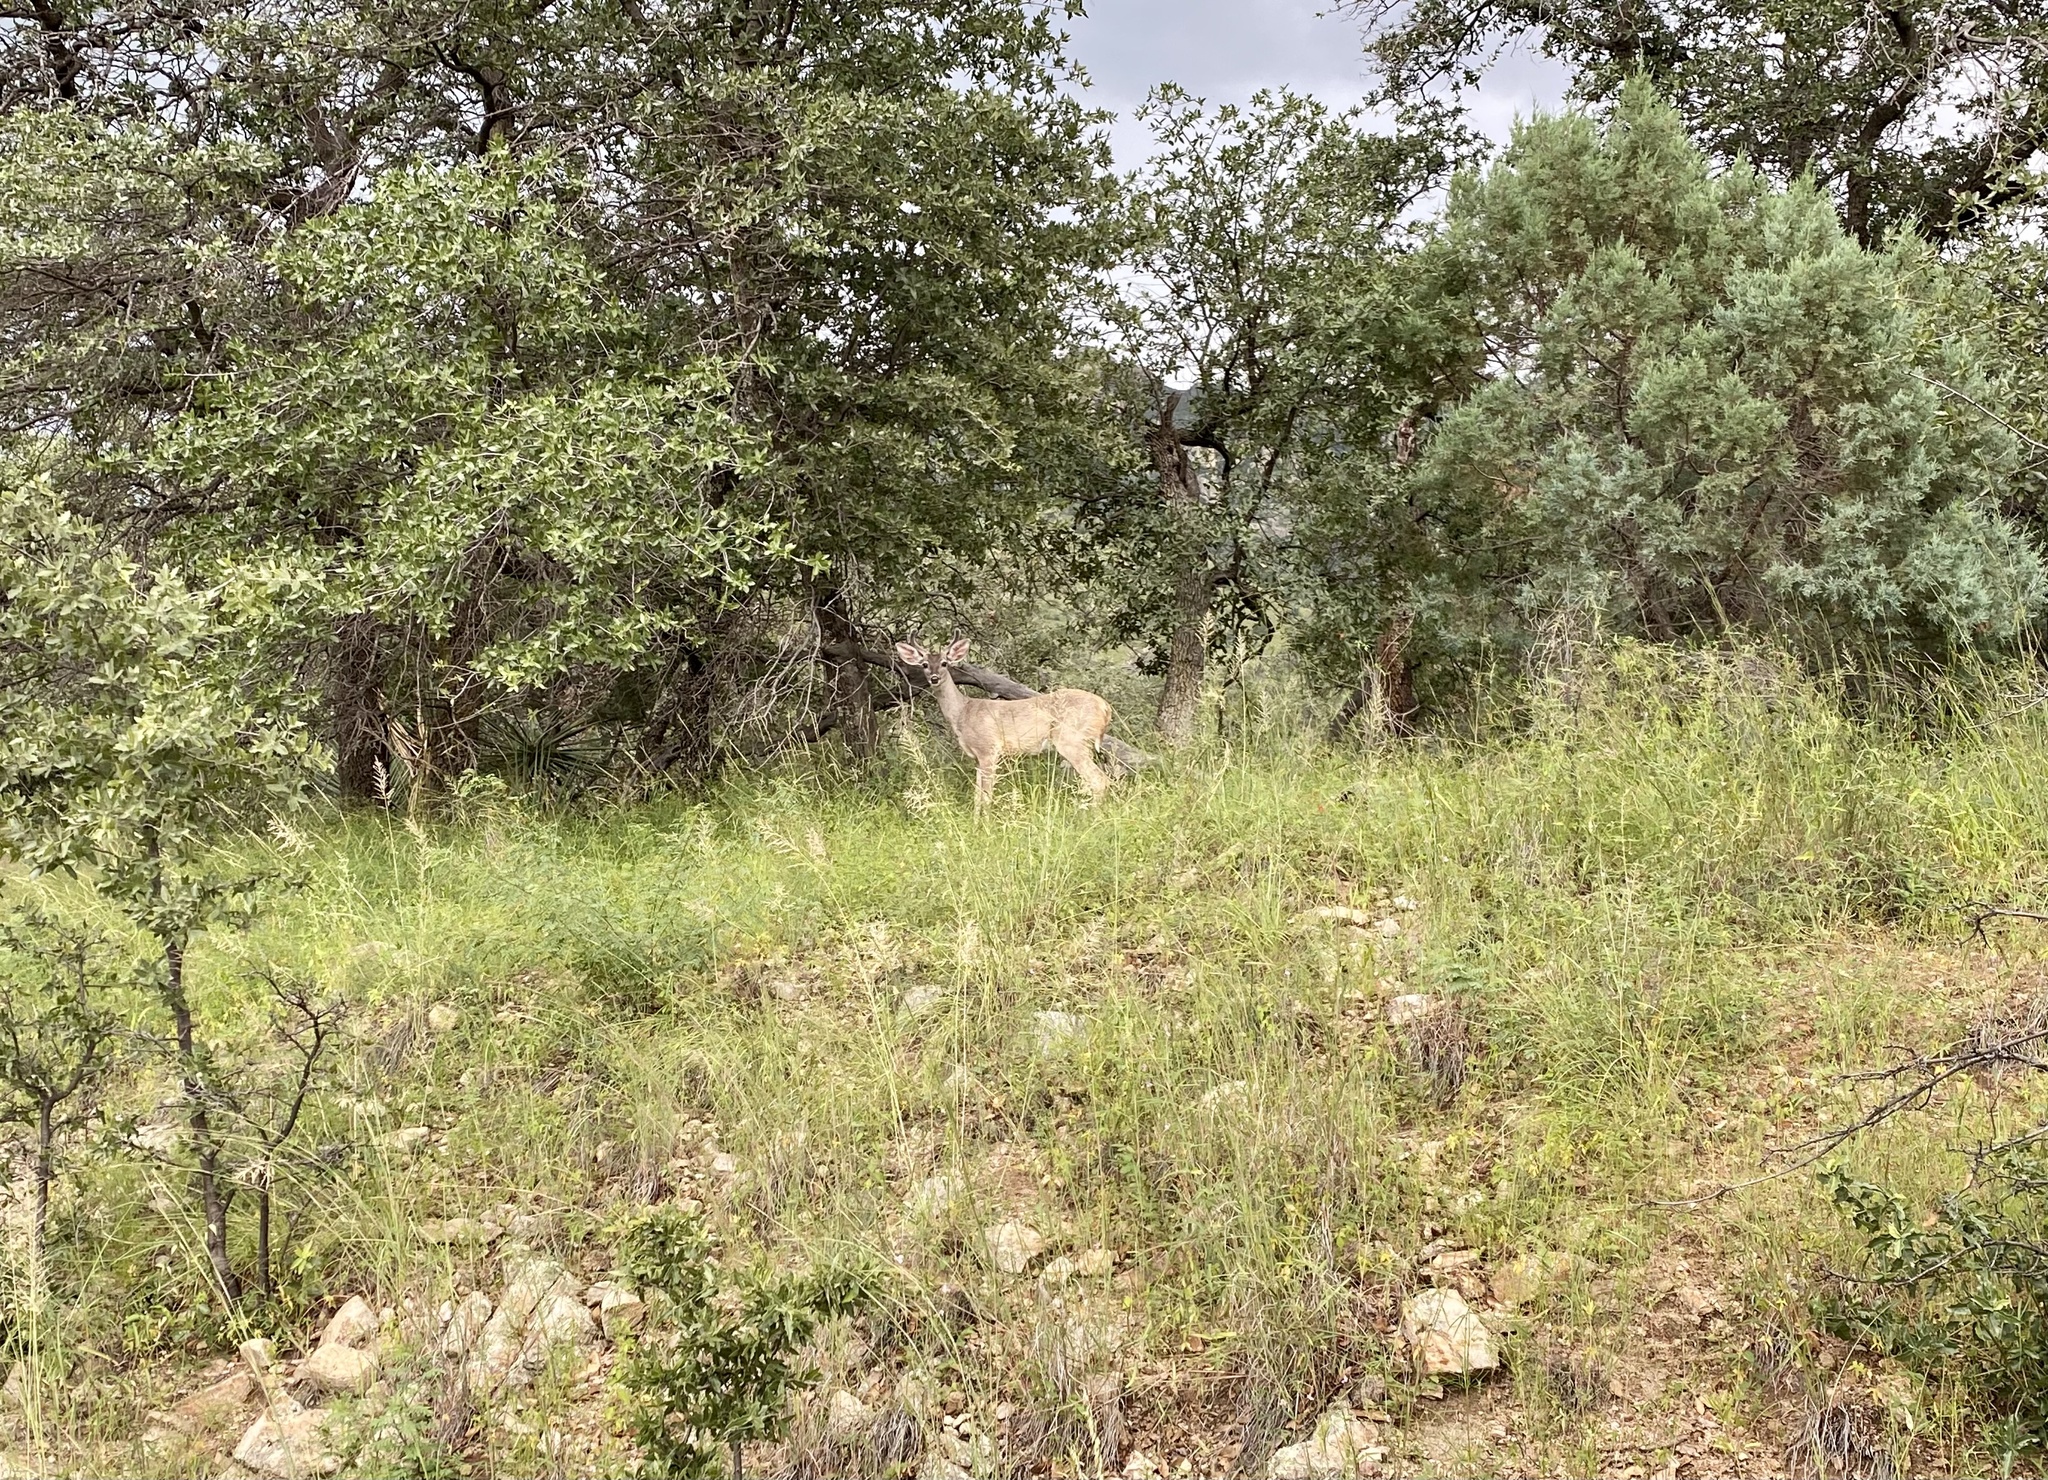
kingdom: Animalia
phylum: Chordata
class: Mammalia
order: Artiodactyla
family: Cervidae
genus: Odocoileus
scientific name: Odocoileus virginianus
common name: White-tailed deer
